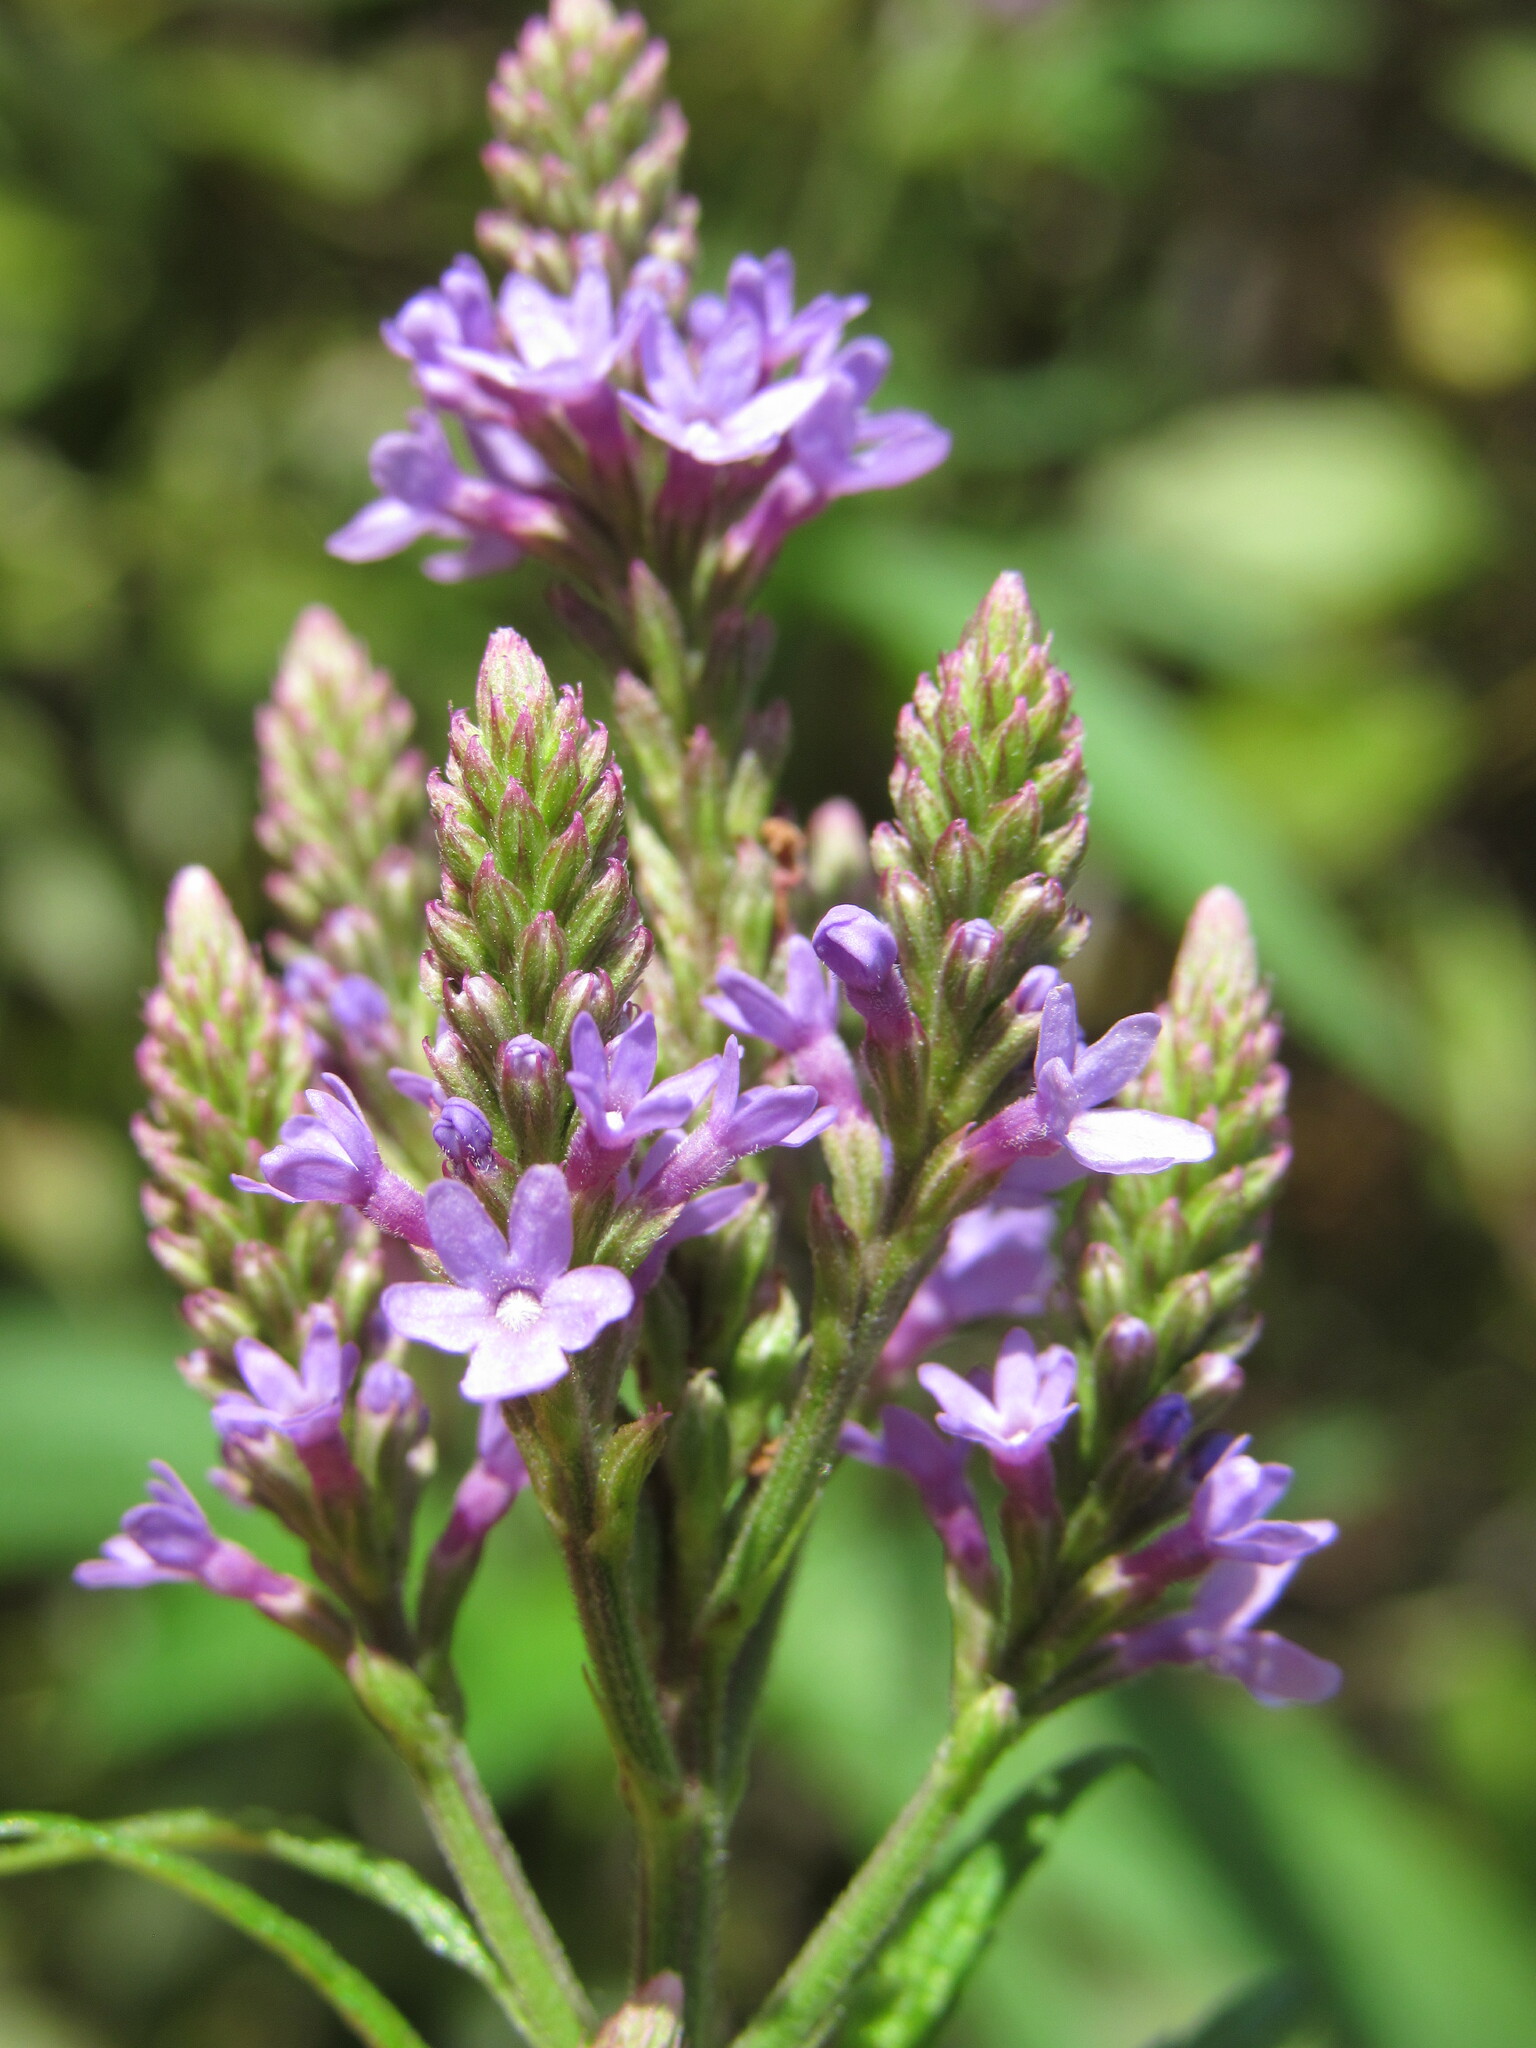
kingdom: Plantae
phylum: Tracheophyta
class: Magnoliopsida
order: Lamiales
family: Verbenaceae
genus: Verbena
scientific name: Verbena hastata
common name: American blue vervain
